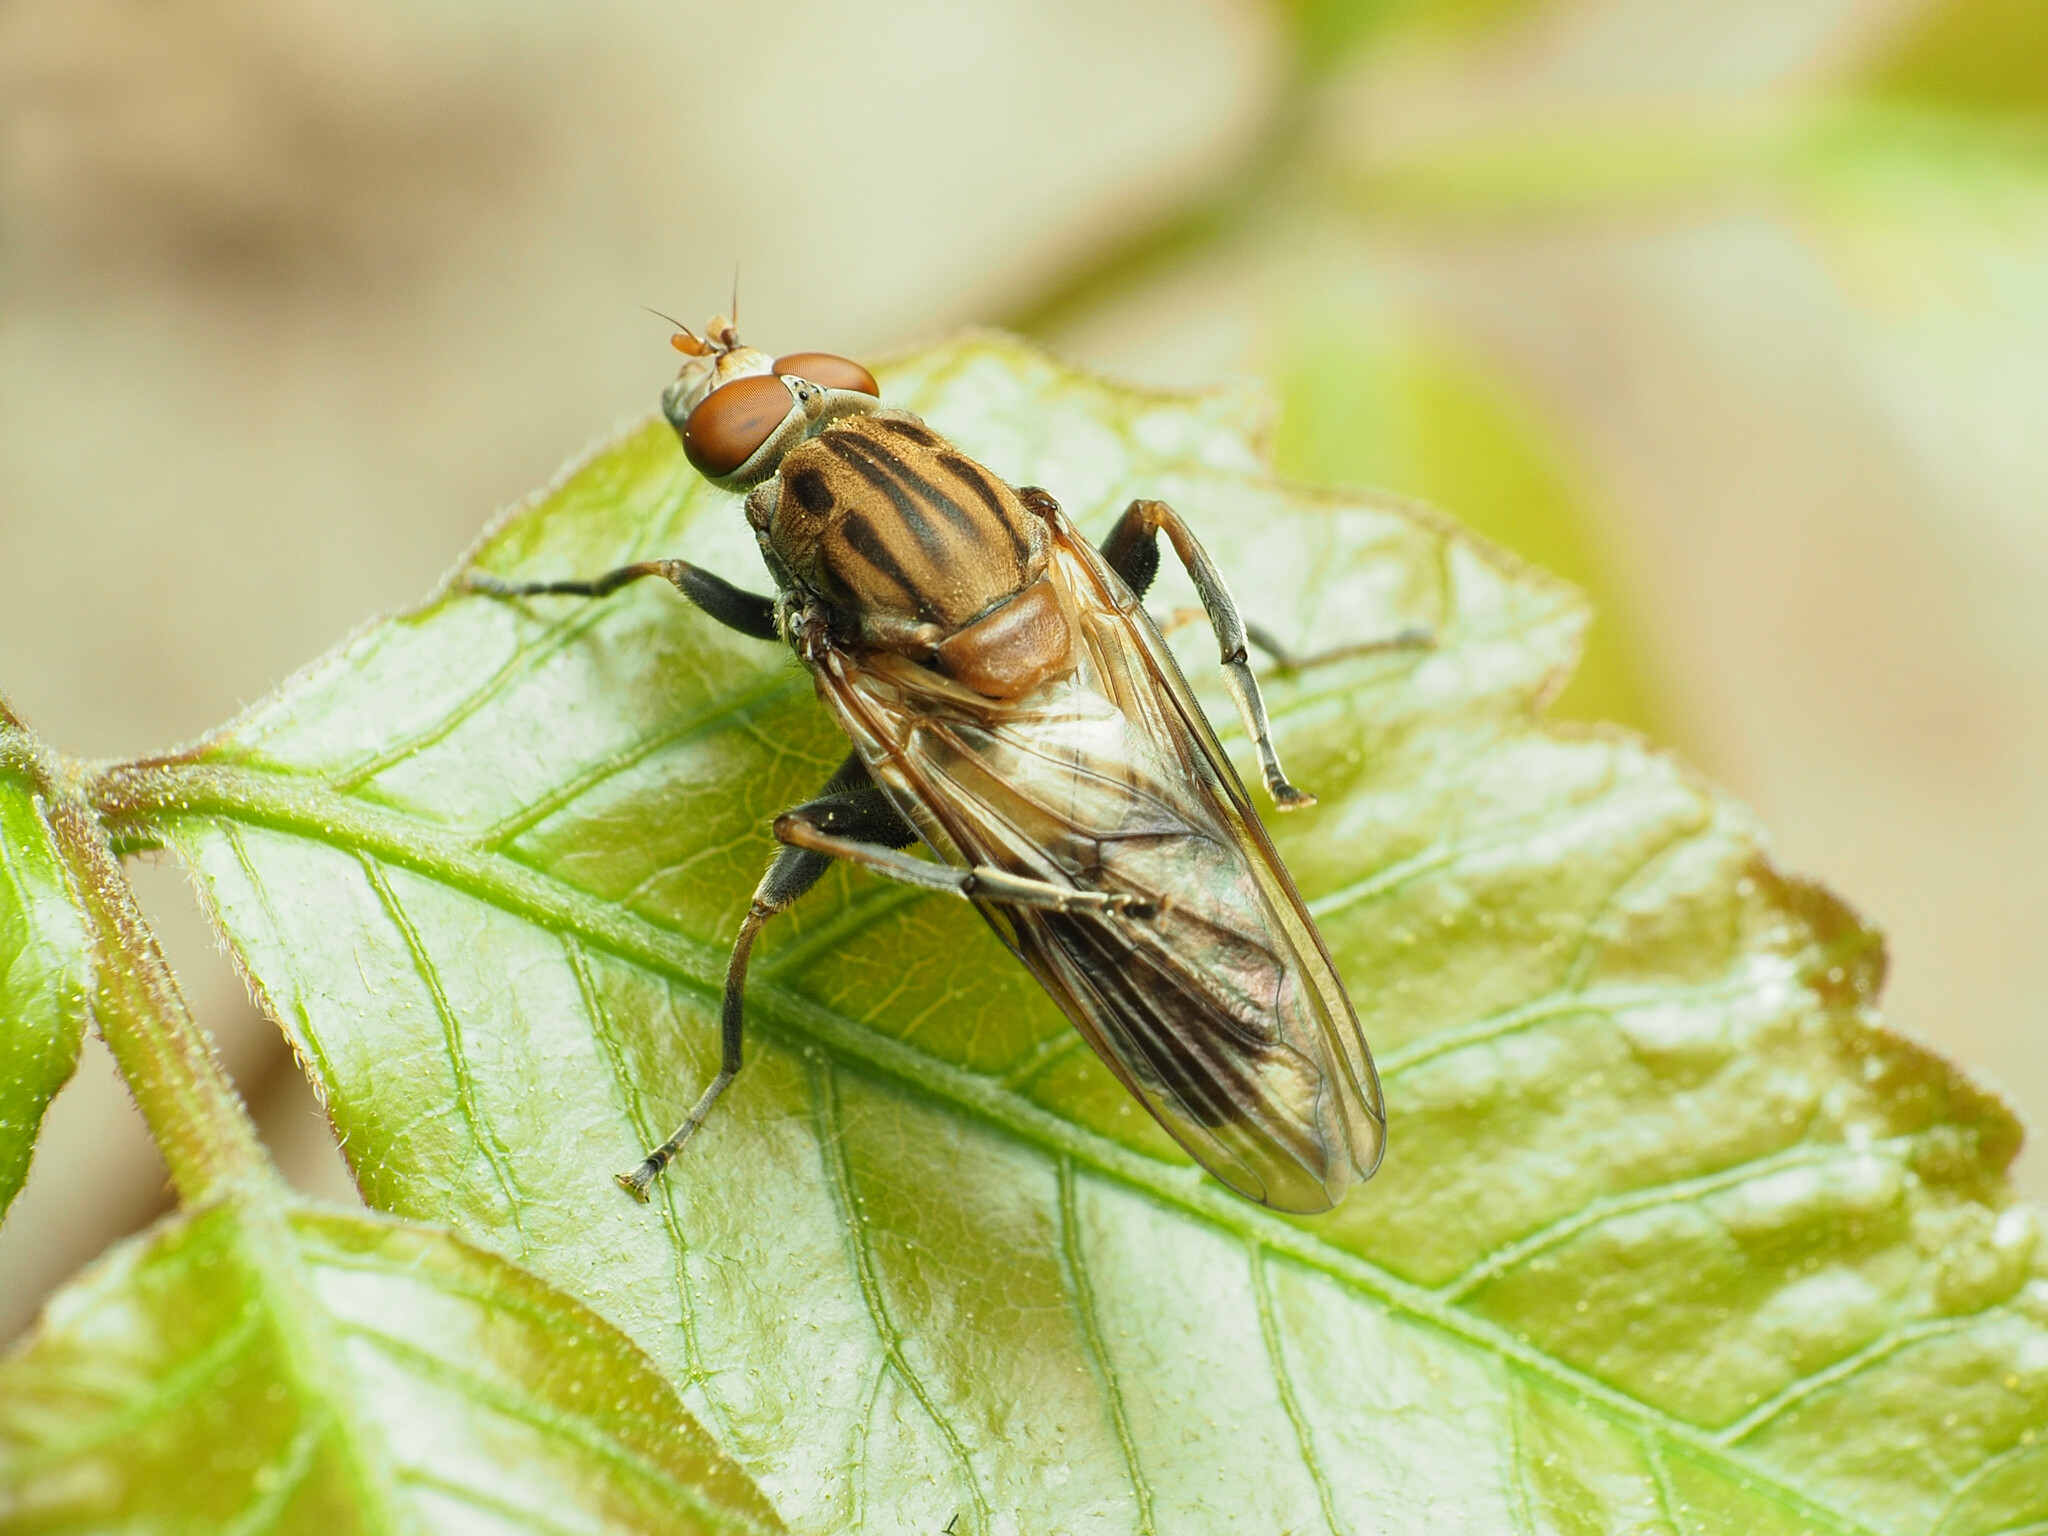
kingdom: Animalia
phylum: Arthropoda
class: Insecta
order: Diptera
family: Syrphidae
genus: Brachyopa
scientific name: Brachyopa vacua
